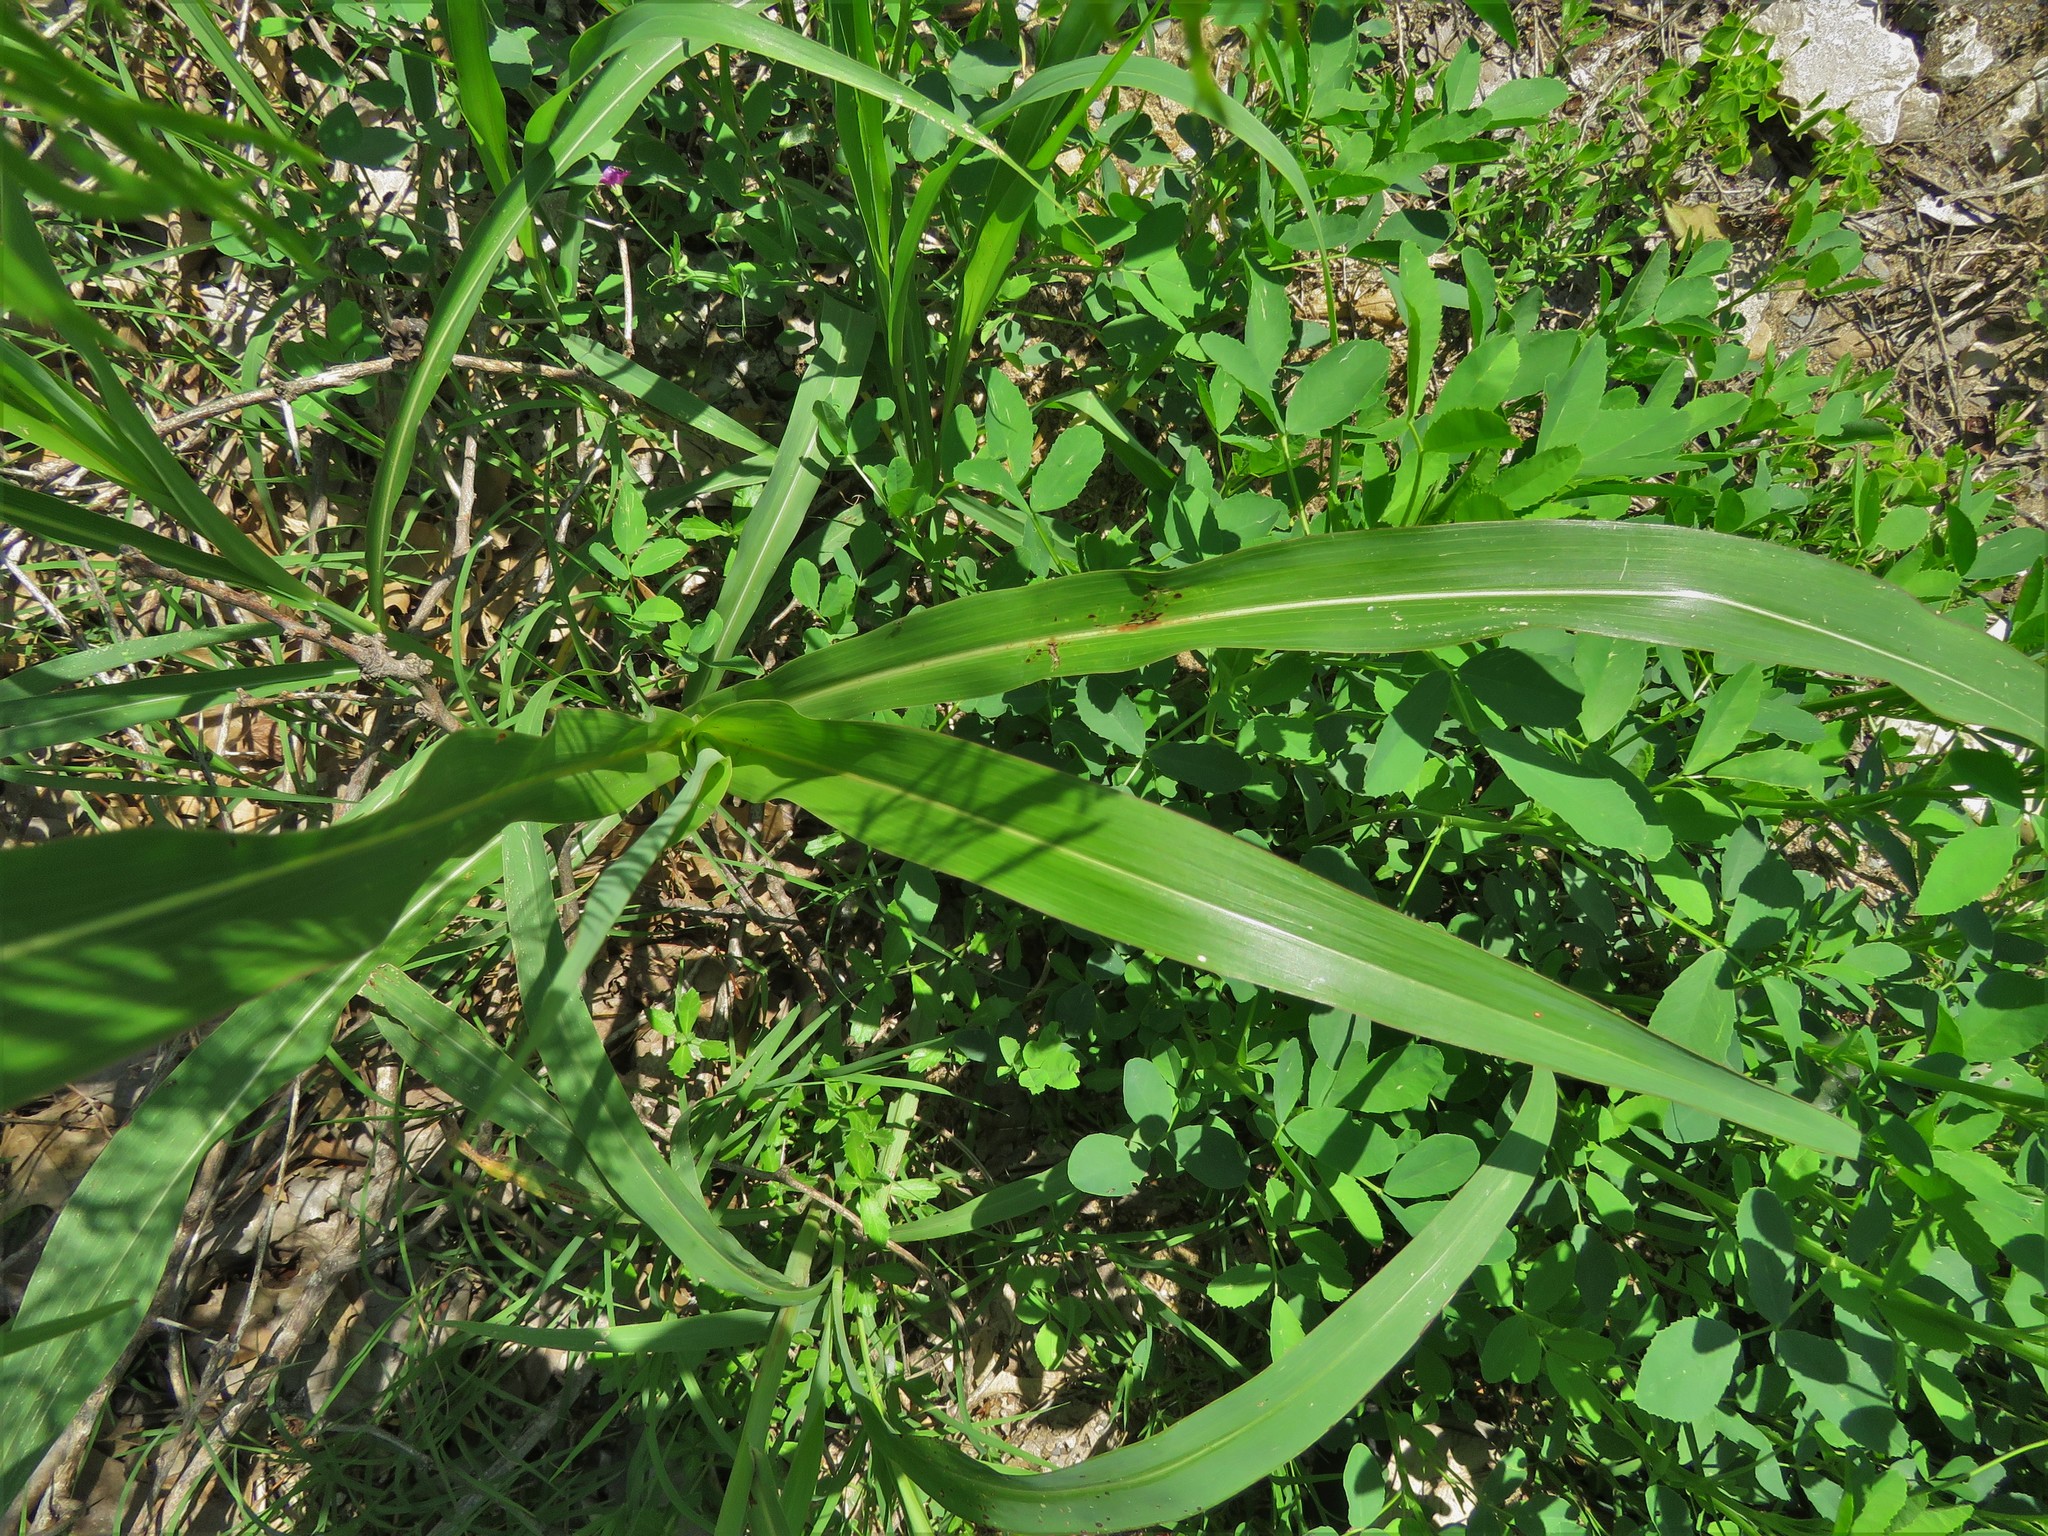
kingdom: Plantae
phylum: Tracheophyta
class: Liliopsida
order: Poales
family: Poaceae
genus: Sorghum
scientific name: Sorghum halepense
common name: Johnson-grass
